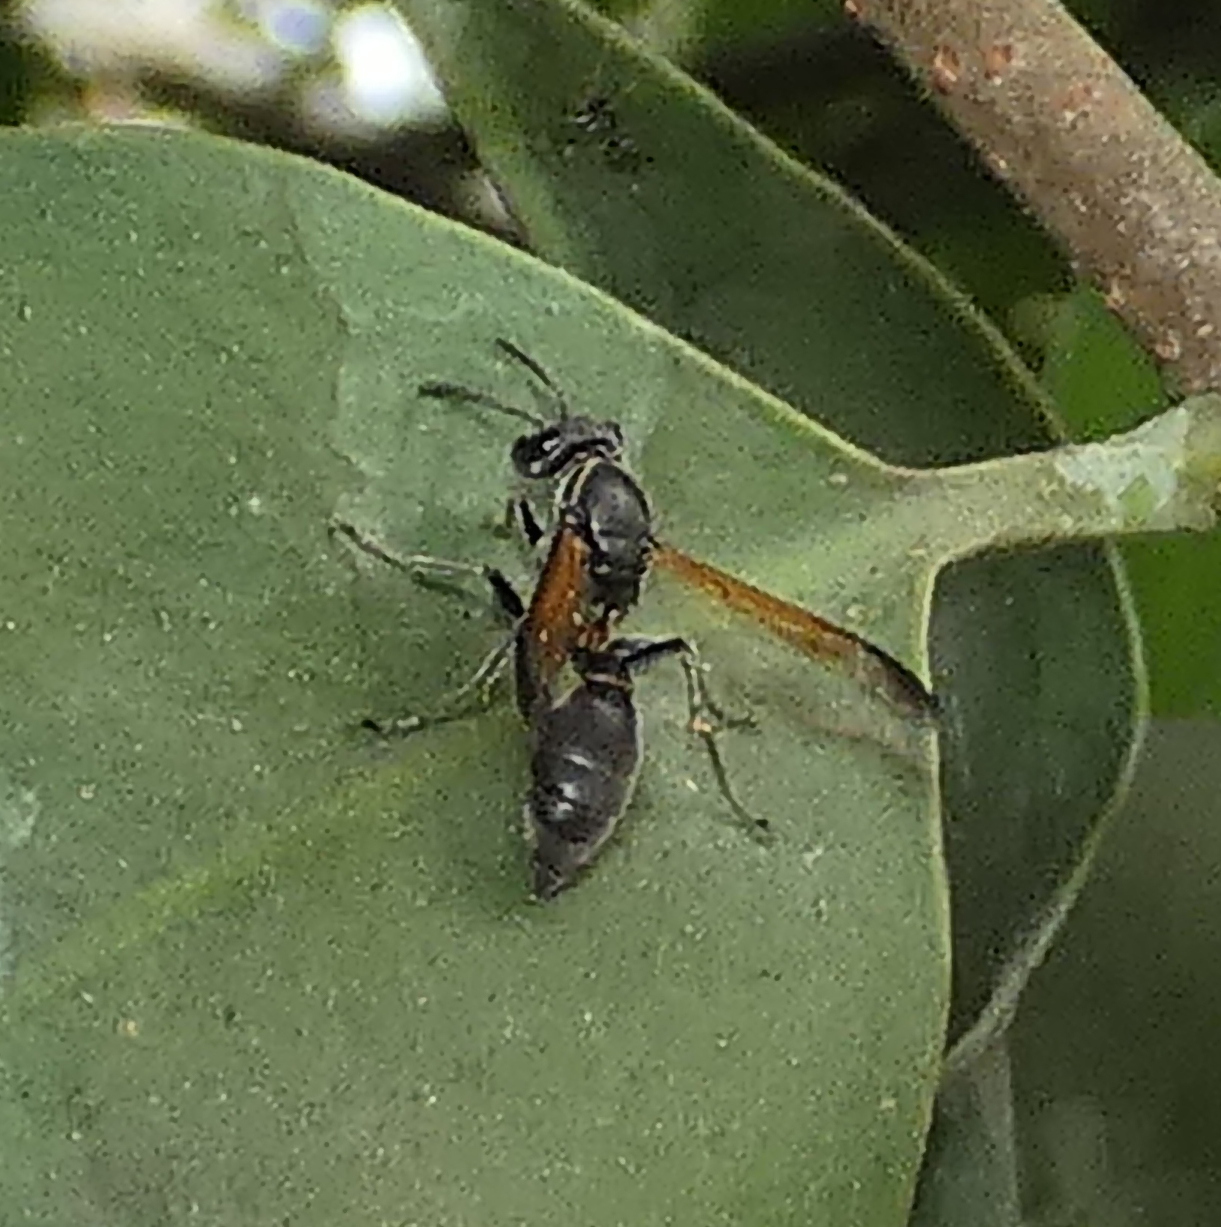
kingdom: Animalia
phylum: Arthropoda
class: Insecta
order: Hymenoptera
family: Eumenidae
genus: Polybia
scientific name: Polybia rejecta
